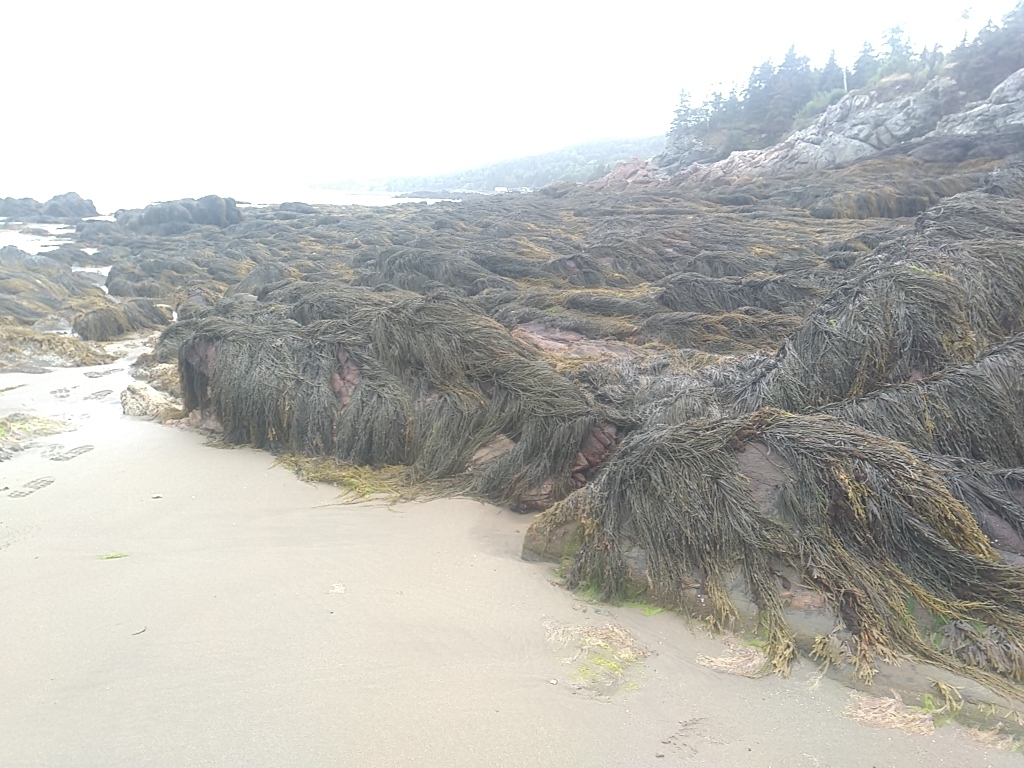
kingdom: Chromista
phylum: Ochrophyta
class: Phaeophyceae
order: Fucales
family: Fucaceae
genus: Ascophyllum
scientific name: Ascophyllum nodosum
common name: Knotted wrack
